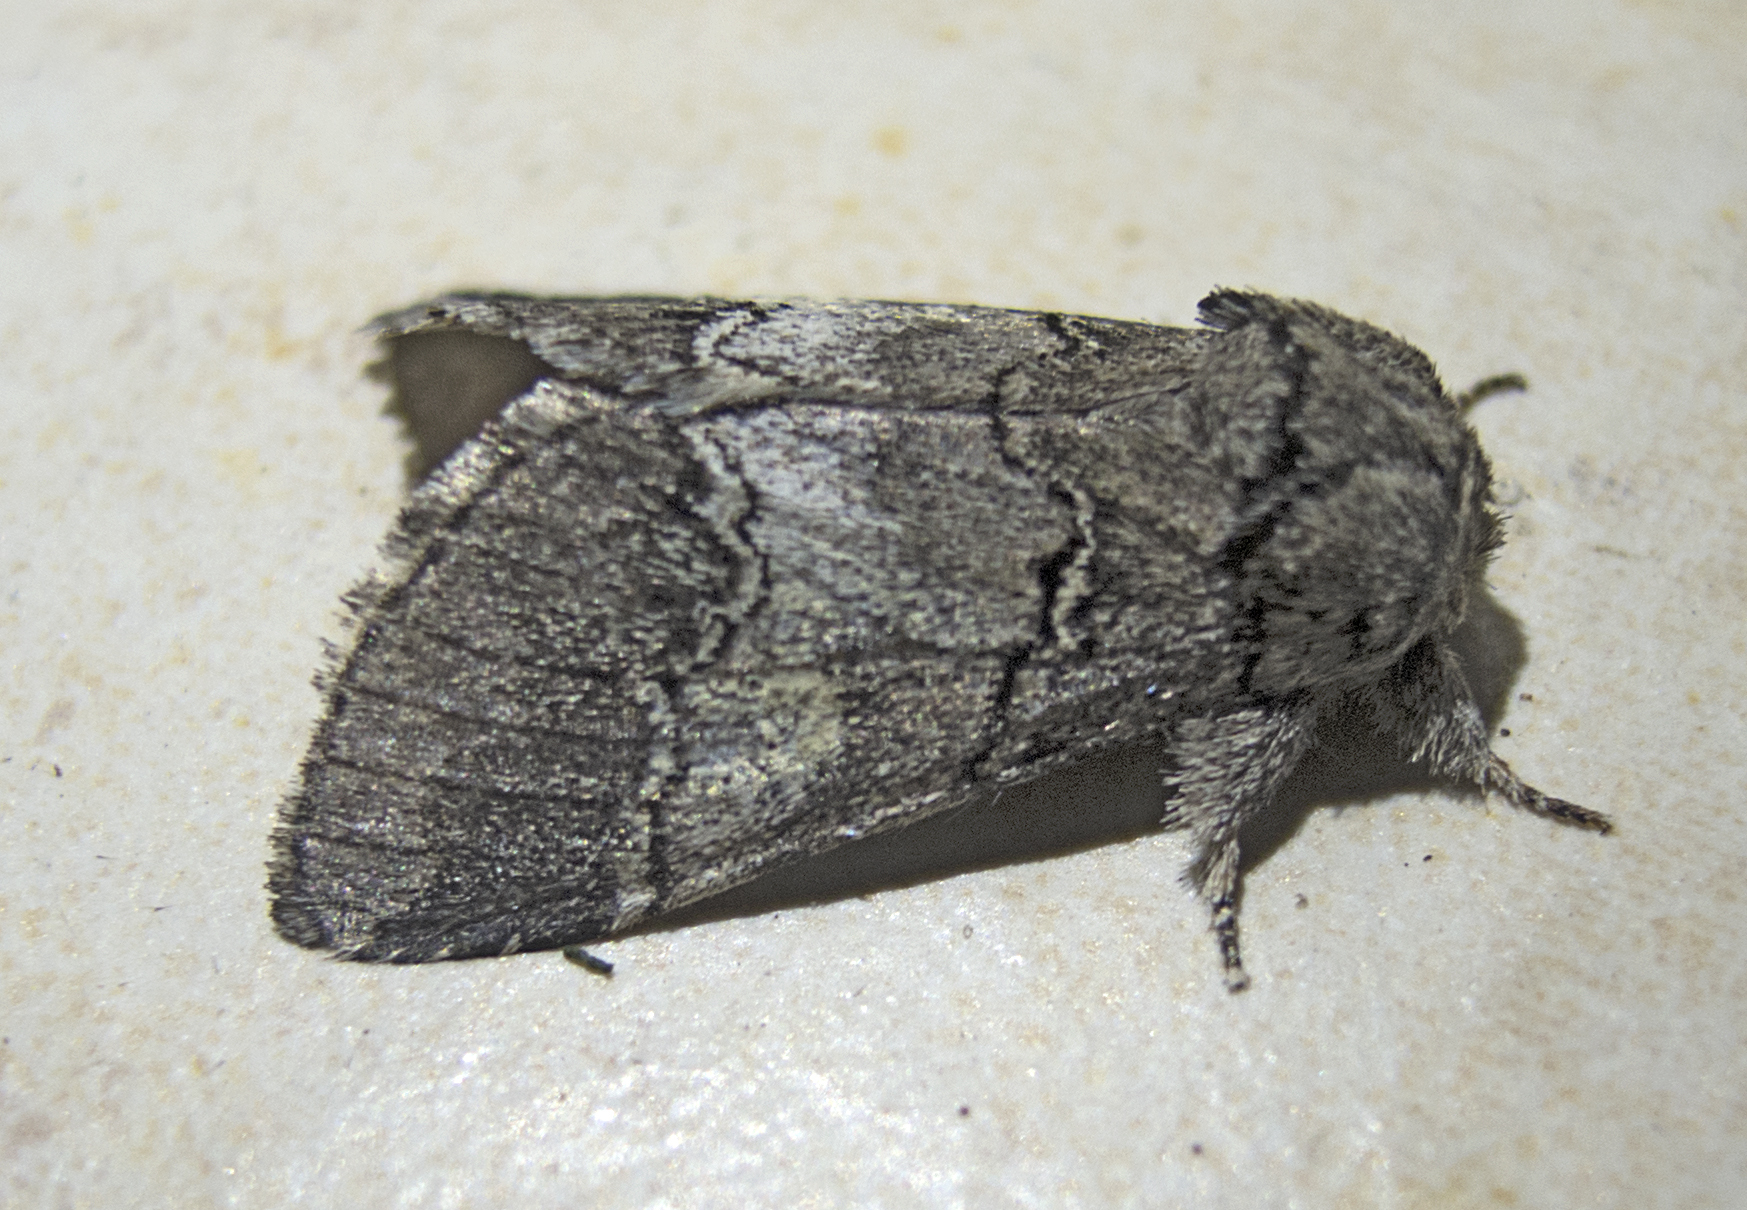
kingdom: Animalia
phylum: Arthropoda
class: Insecta
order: Lepidoptera
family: Notodontidae
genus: Drymonia
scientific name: Drymonia querna
